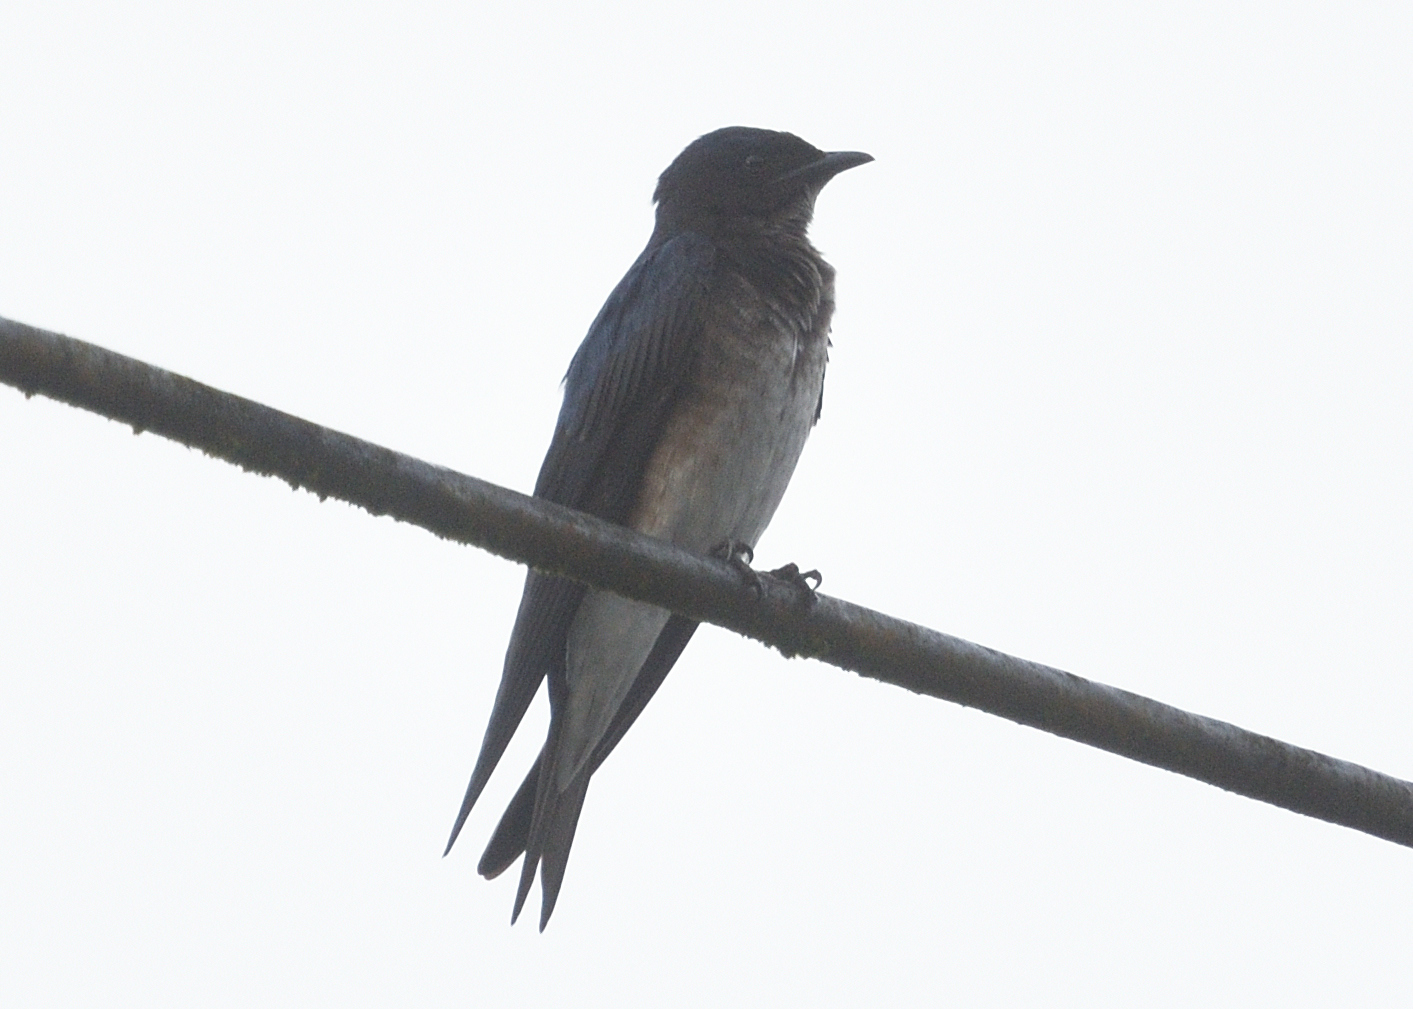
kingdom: Animalia
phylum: Chordata
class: Aves
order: Passeriformes
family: Hirundinidae
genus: Progne
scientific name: Progne chalybea
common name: Grey-breasted martin
